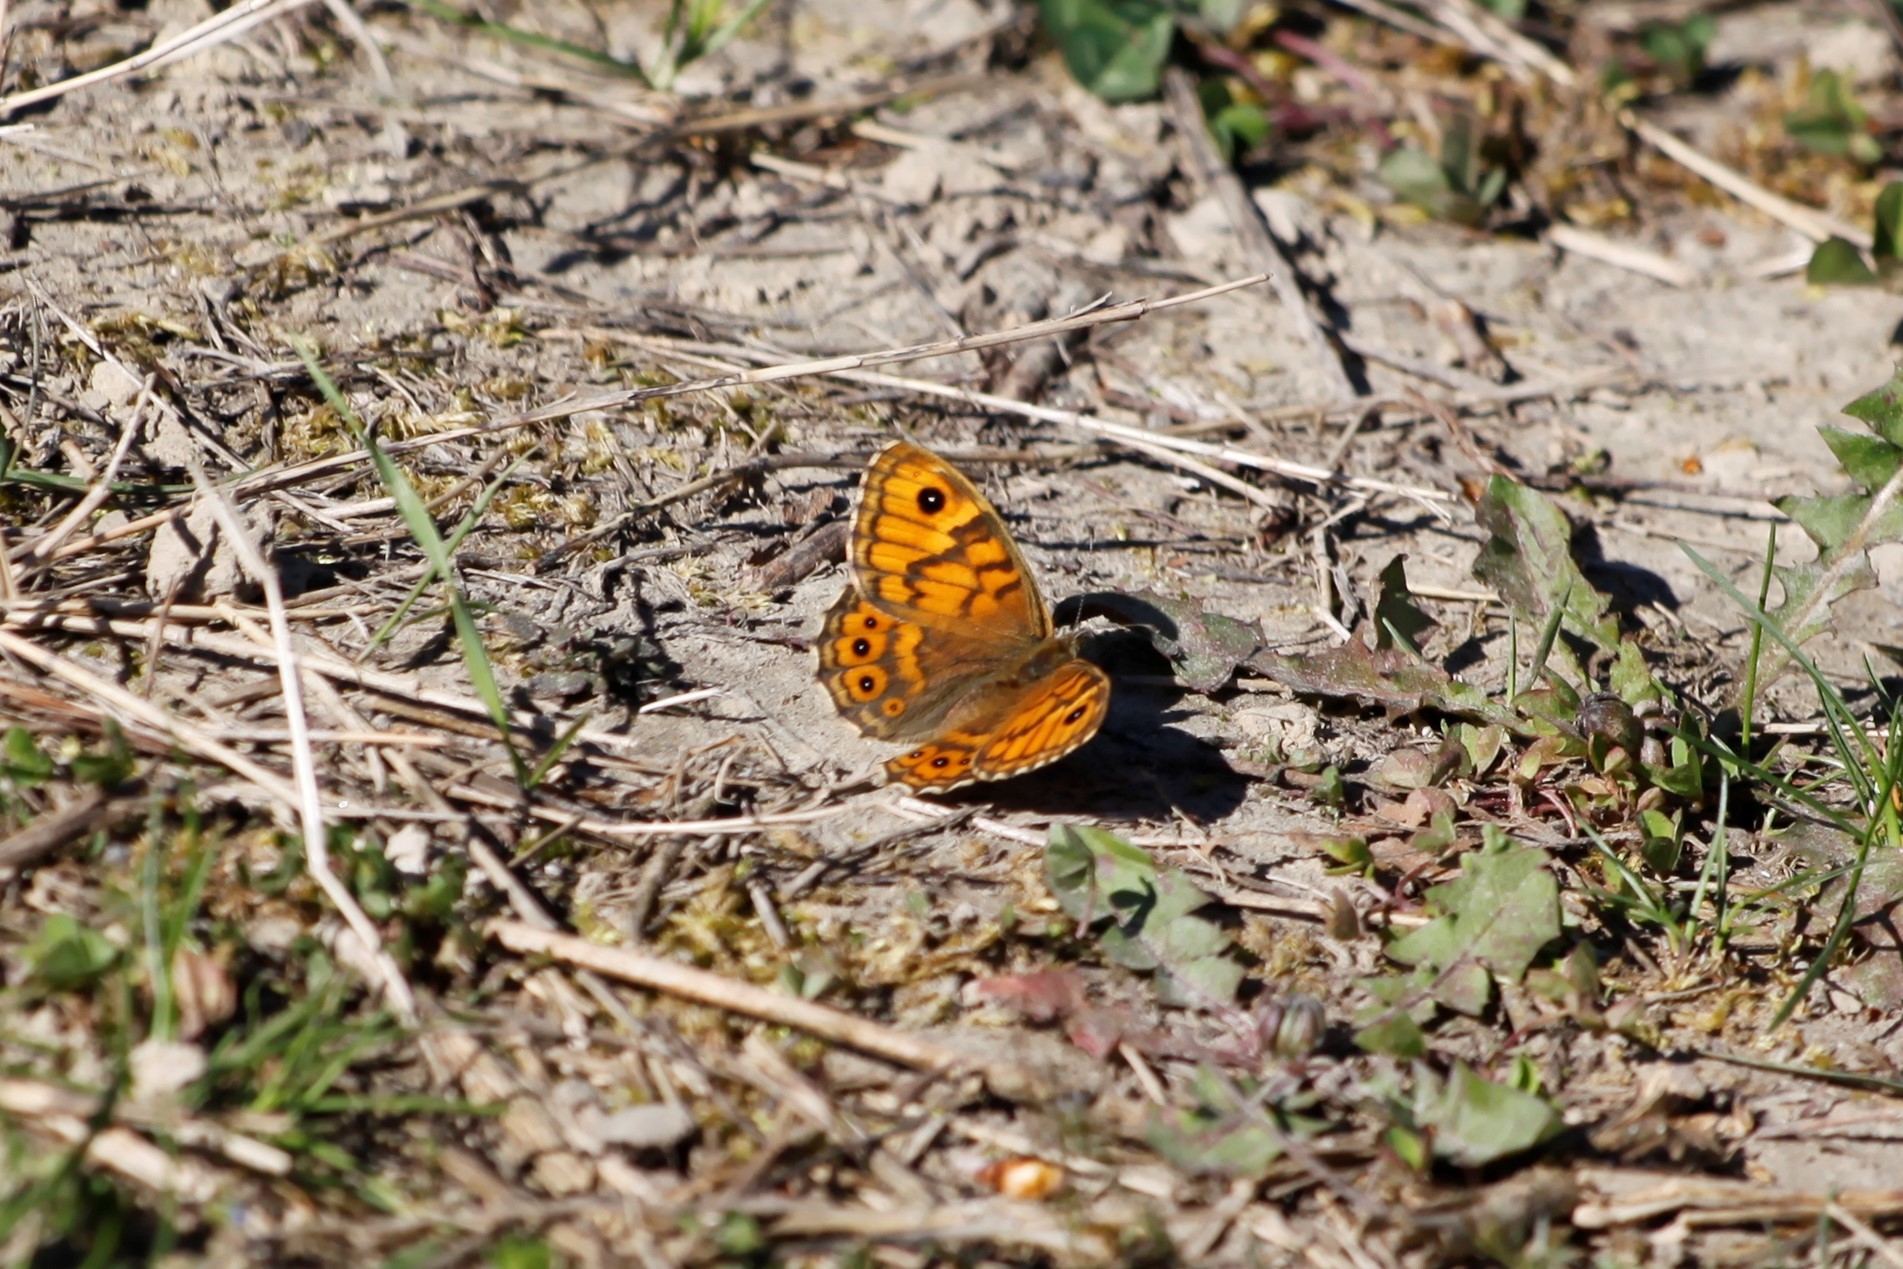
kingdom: Animalia
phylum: Arthropoda
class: Insecta
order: Lepidoptera
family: Nymphalidae
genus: Pararge
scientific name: Pararge Lasiommata megera
